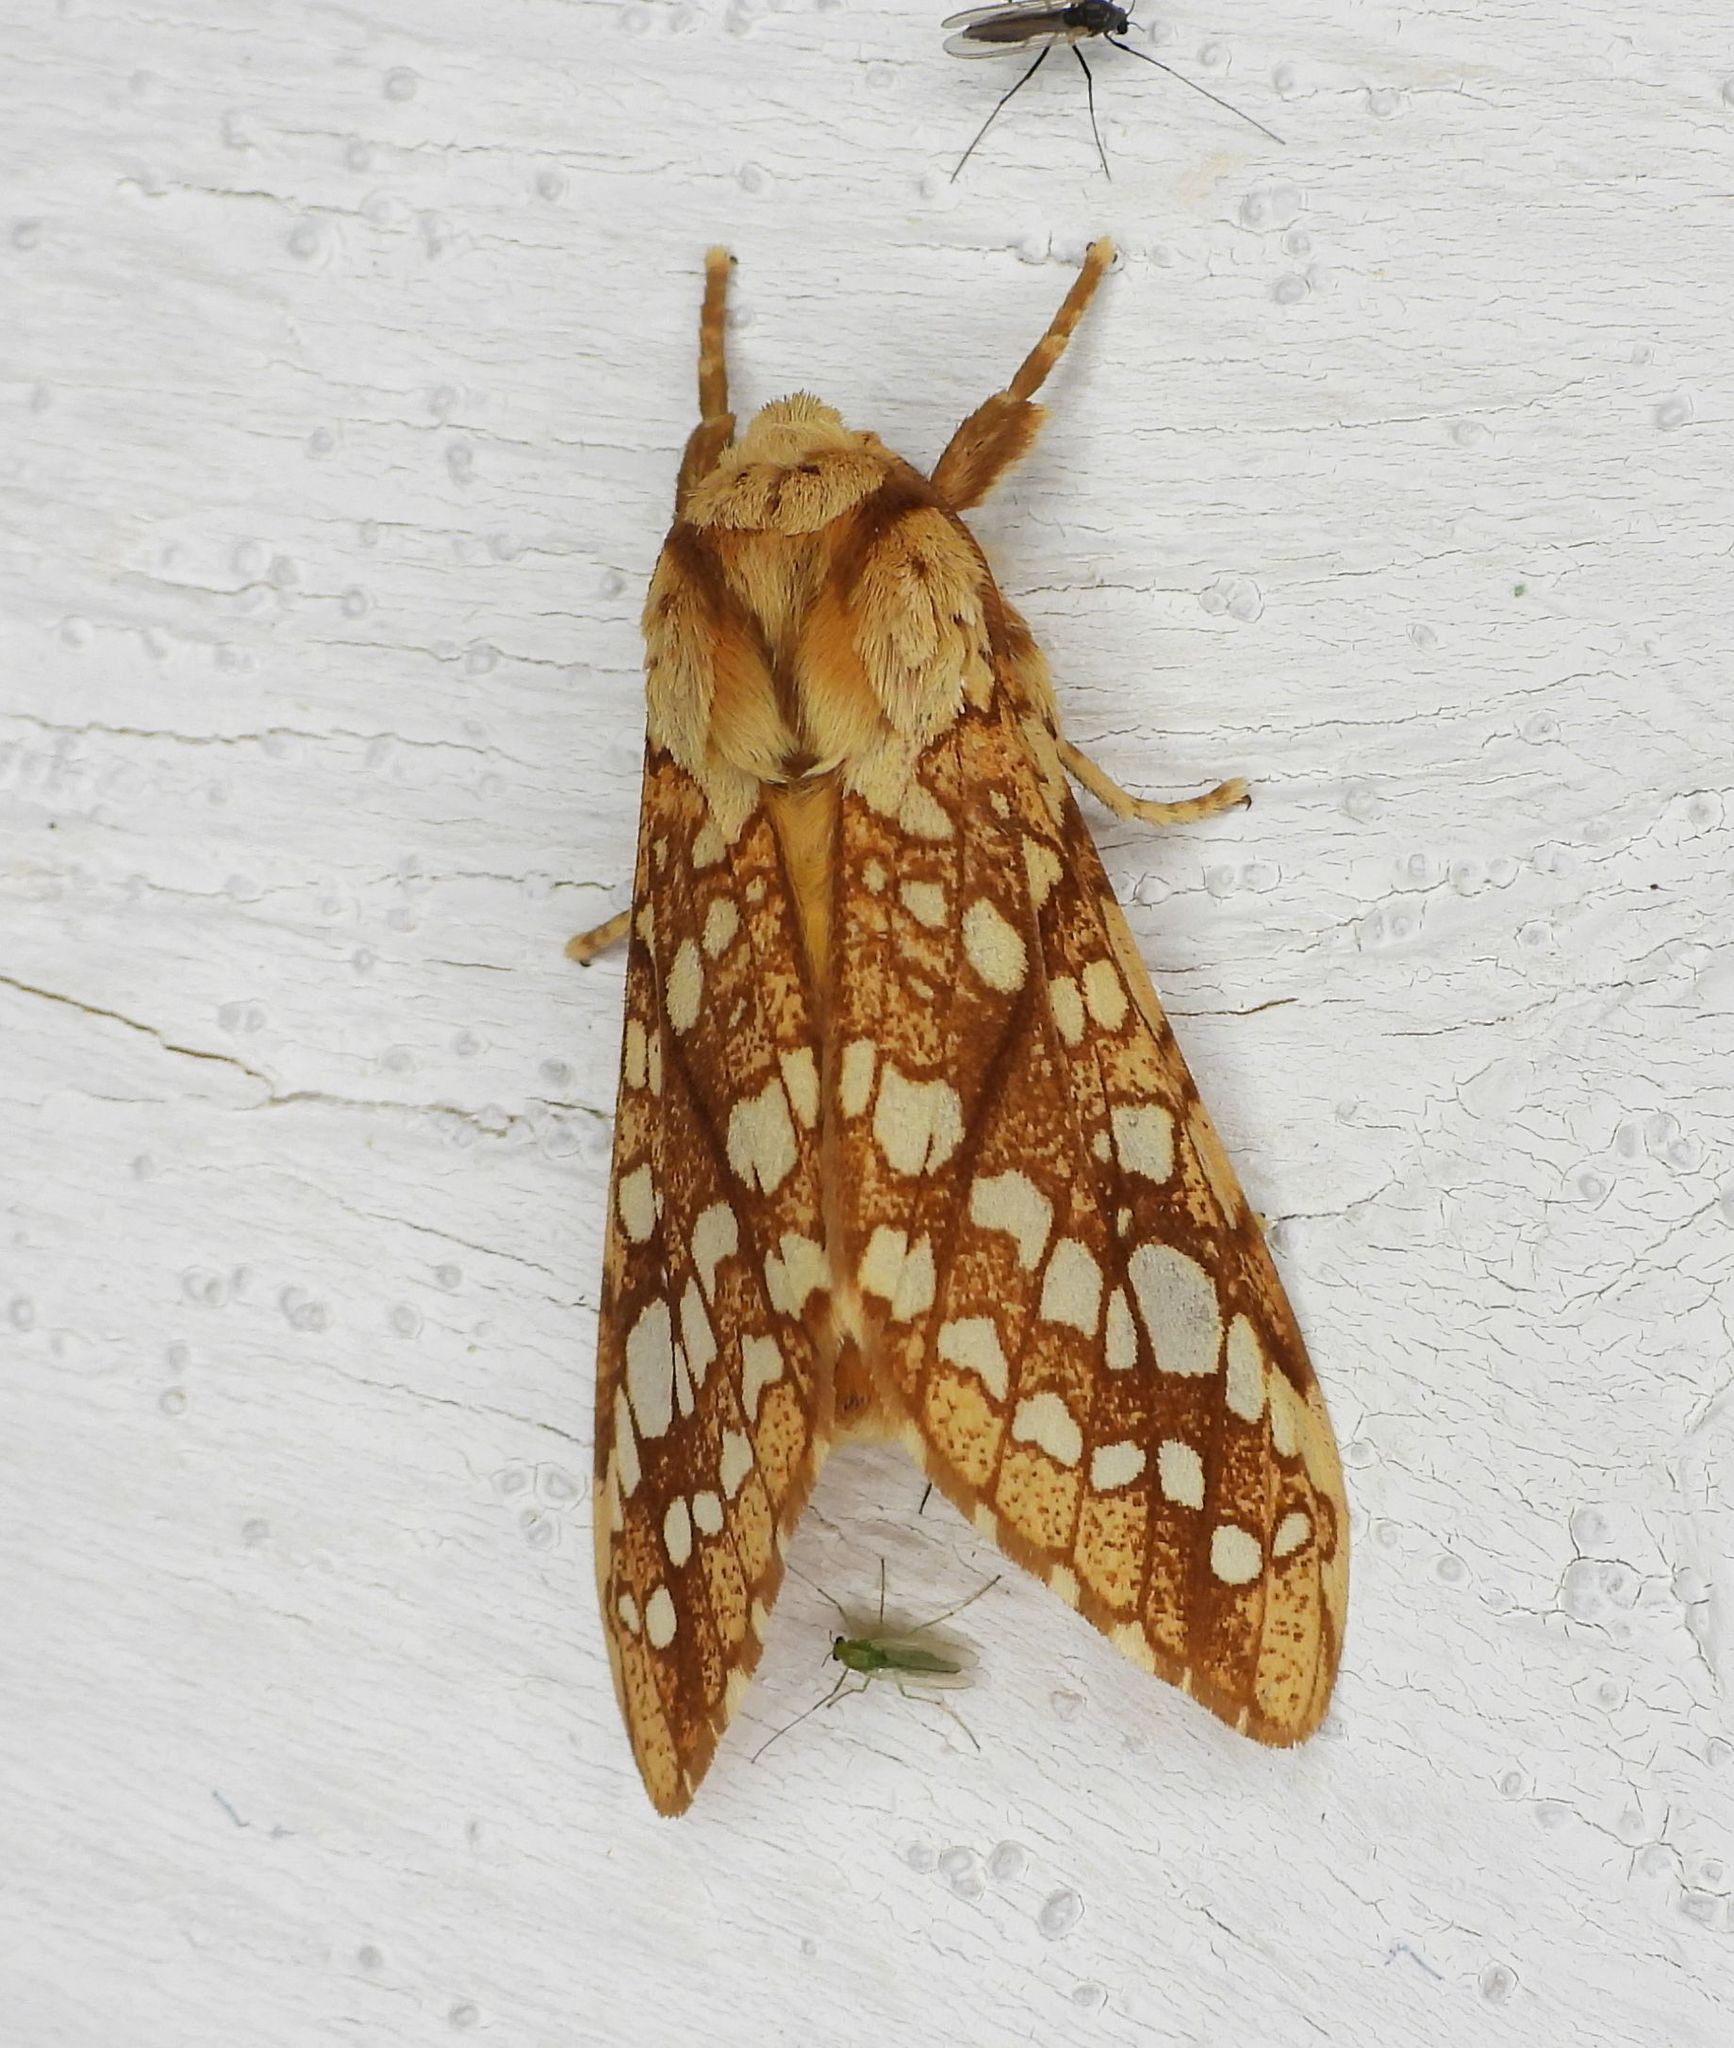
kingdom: Animalia
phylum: Arthropoda
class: Insecta
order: Lepidoptera
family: Erebidae
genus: Lophocampa
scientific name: Lophocampa caryae
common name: Hickory tussock moth
